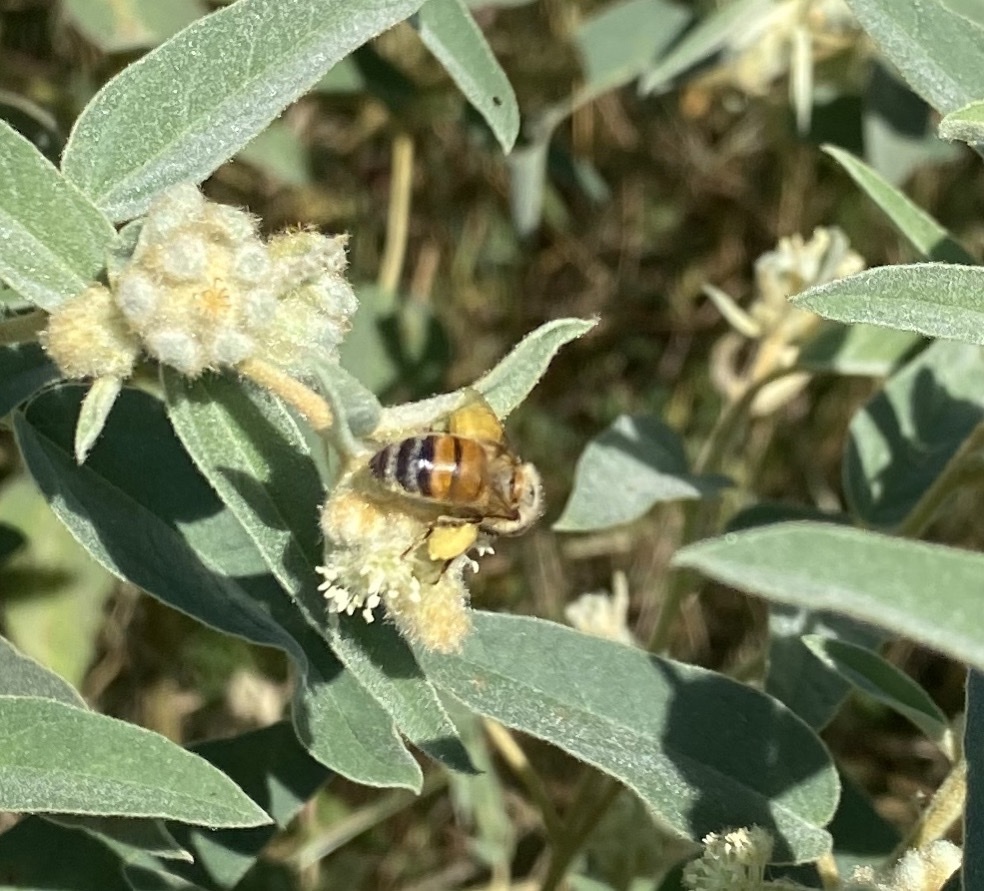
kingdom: Animalia
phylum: Arthropoda
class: Insecta
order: Hymenoptera
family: Apidae
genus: Apis
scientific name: Apis mellifera
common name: Honey bee
